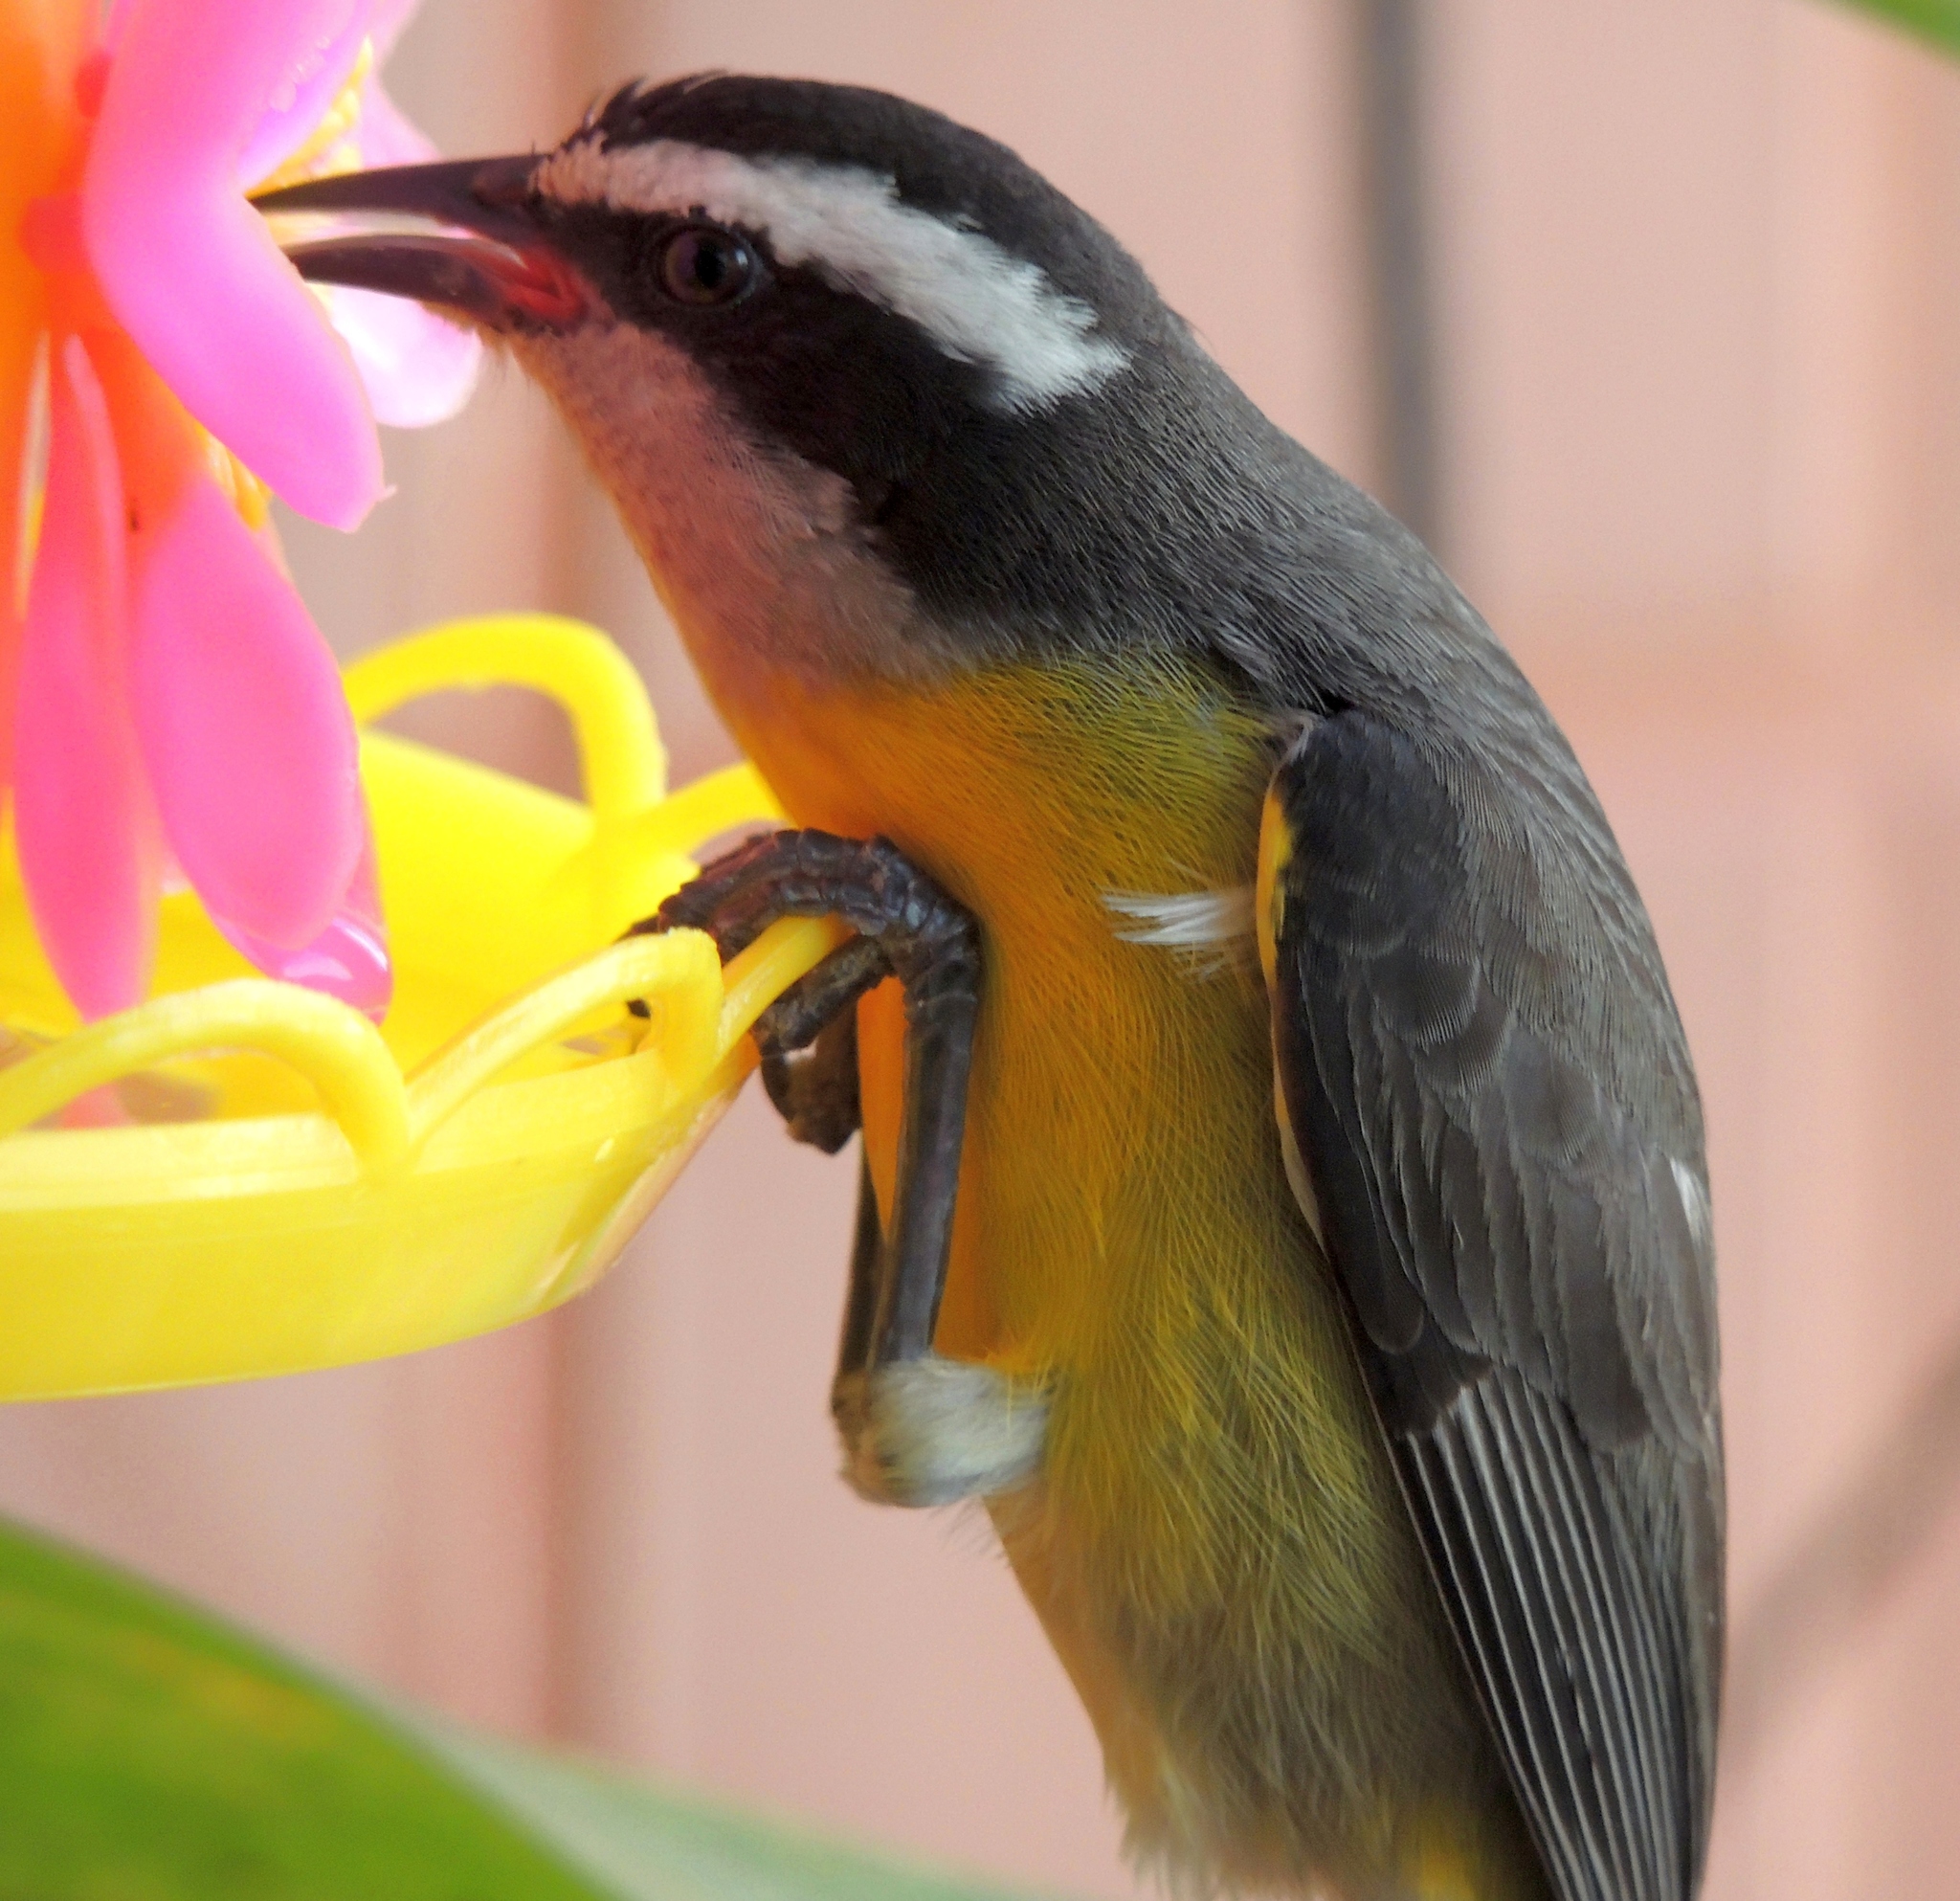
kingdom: Animalia
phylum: Chordata
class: Aves
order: Passeriformes
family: Thraupidae
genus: Coereba
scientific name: Coereba flaveola
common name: Bananaquit
